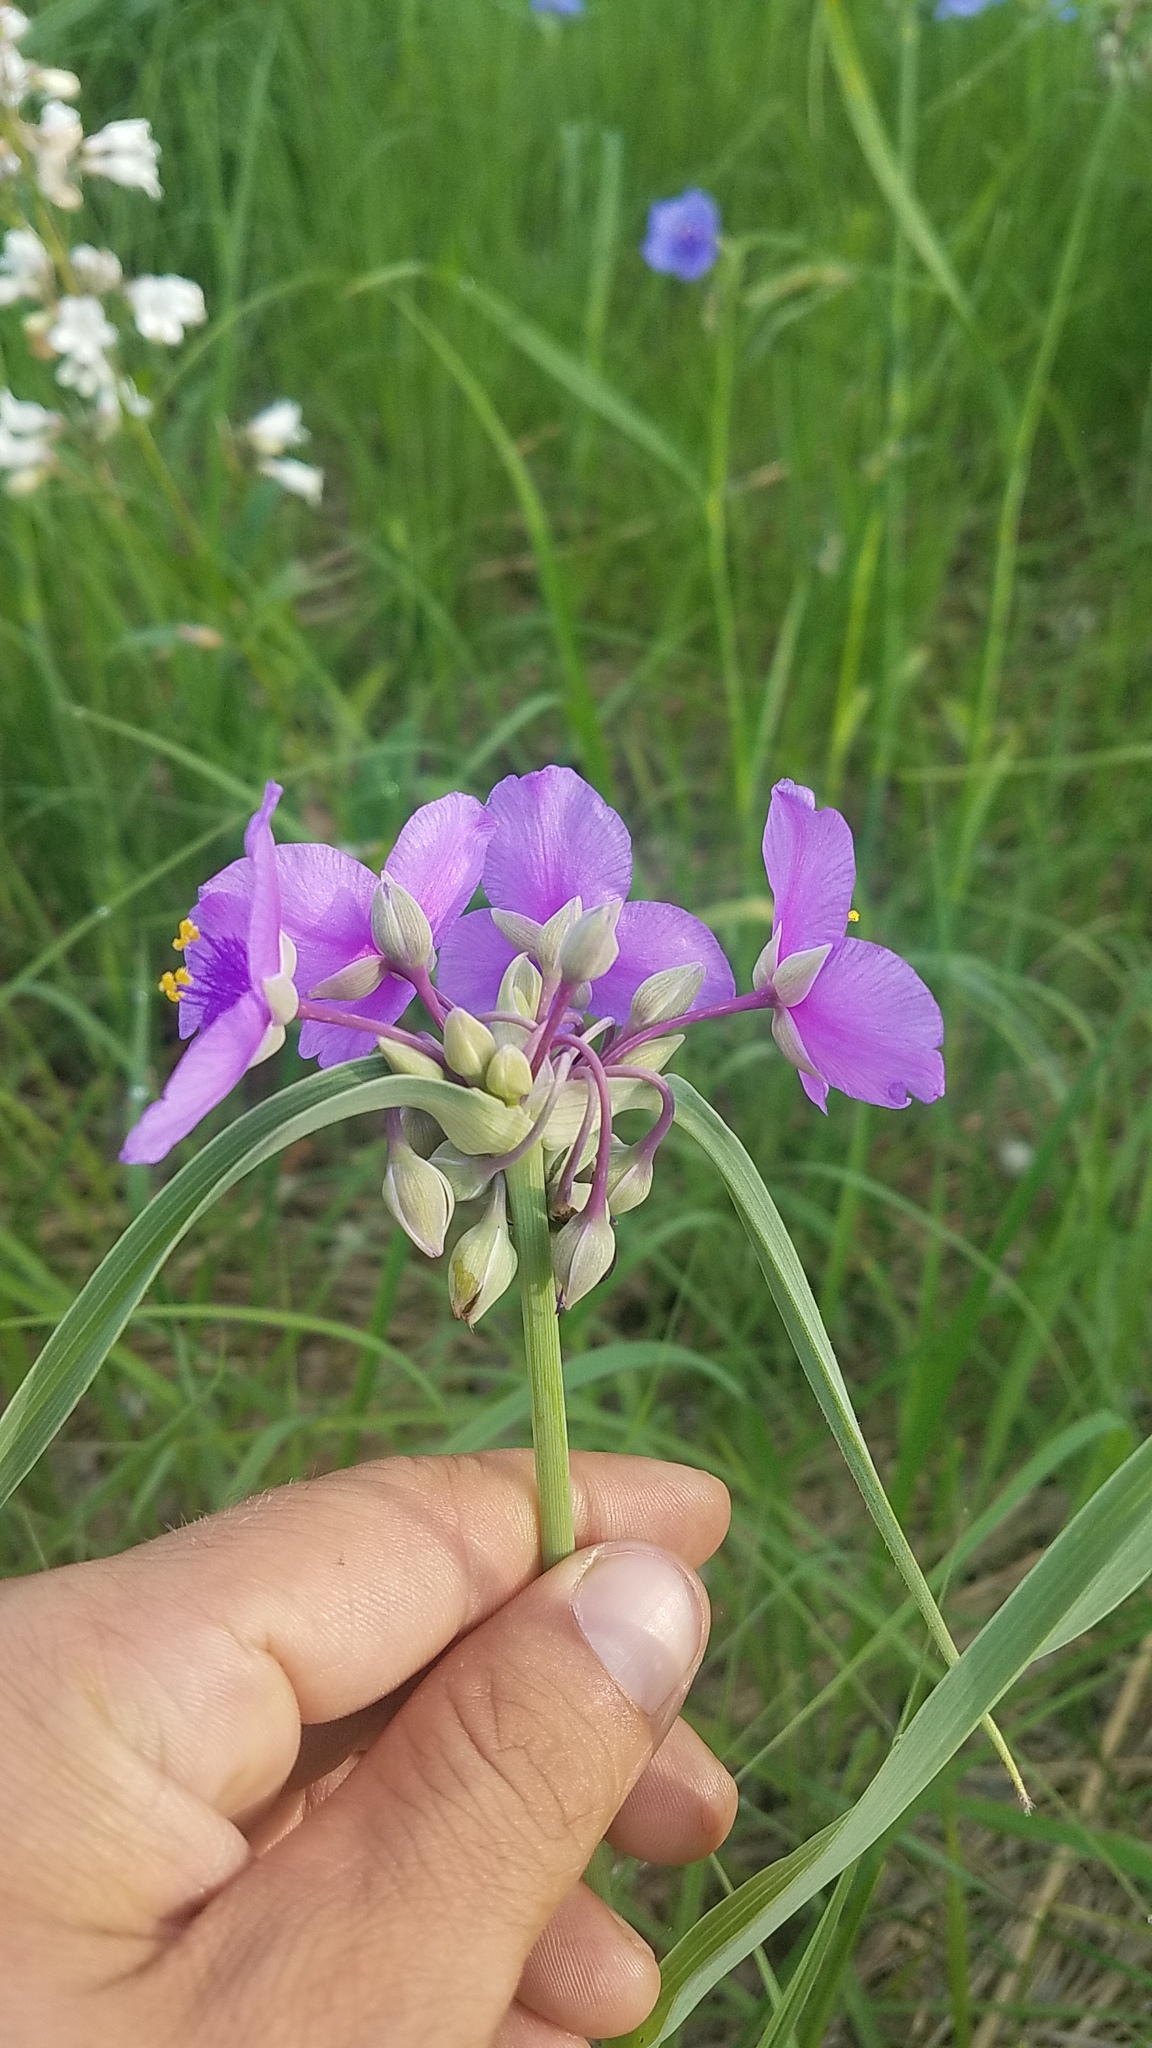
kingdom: Plantae
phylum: Tracheophyta
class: Liliopsida
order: Commelinales
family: Commelinaceae
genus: Tradescantia
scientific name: Tradescantia ohiensis
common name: Ohio spiderwort
